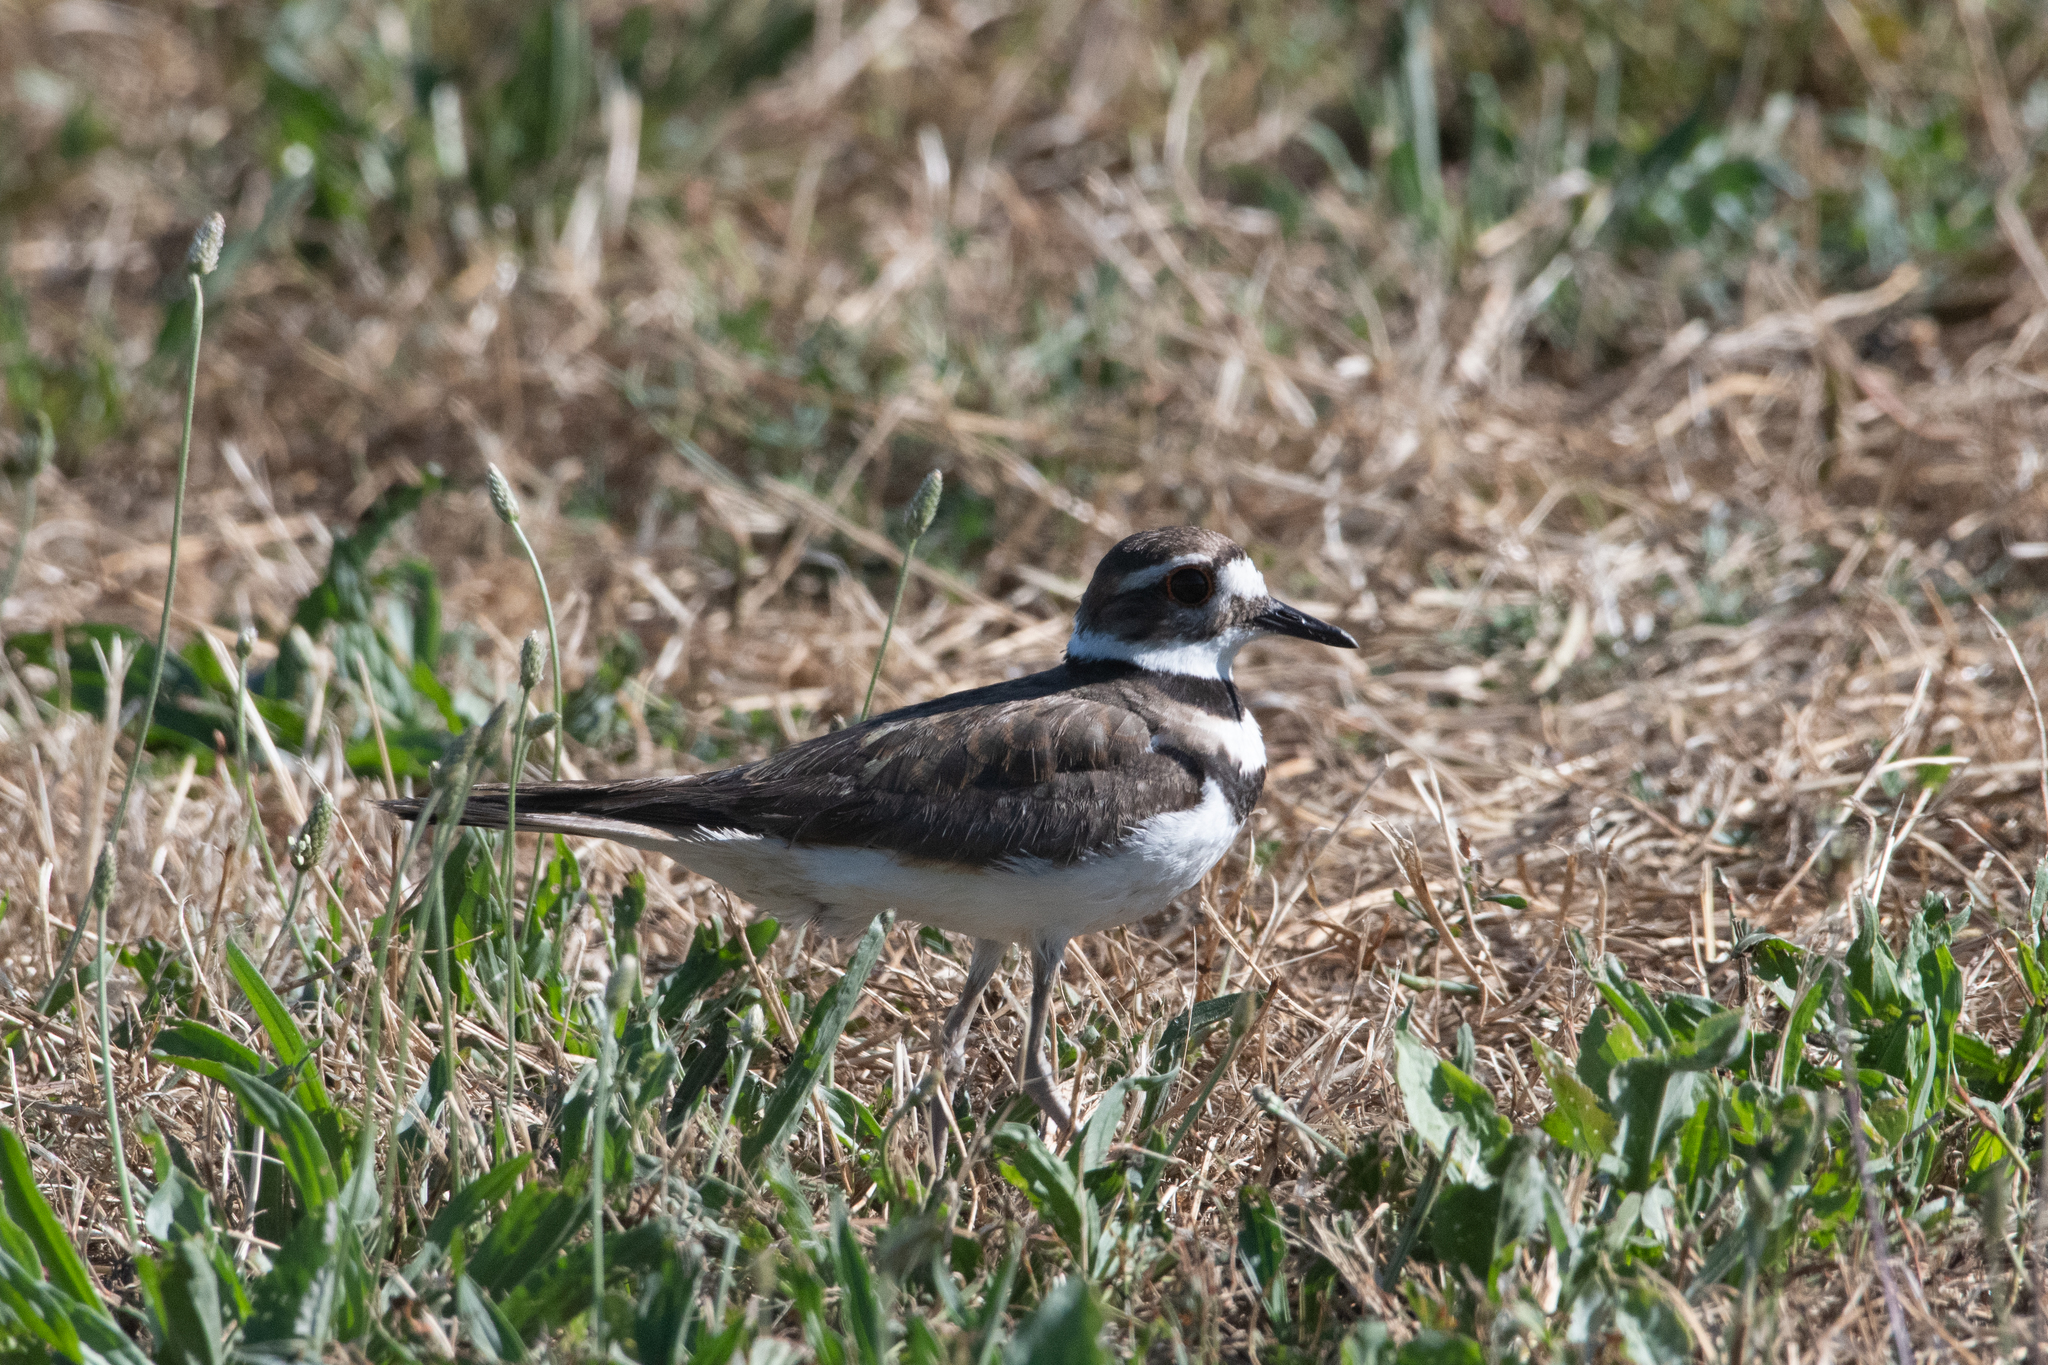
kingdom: Animalia
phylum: Chordata
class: Aves
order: Charadriiformes
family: Charadriidae
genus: Charadrius
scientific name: Charadrius vociferus
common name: Killdeer
